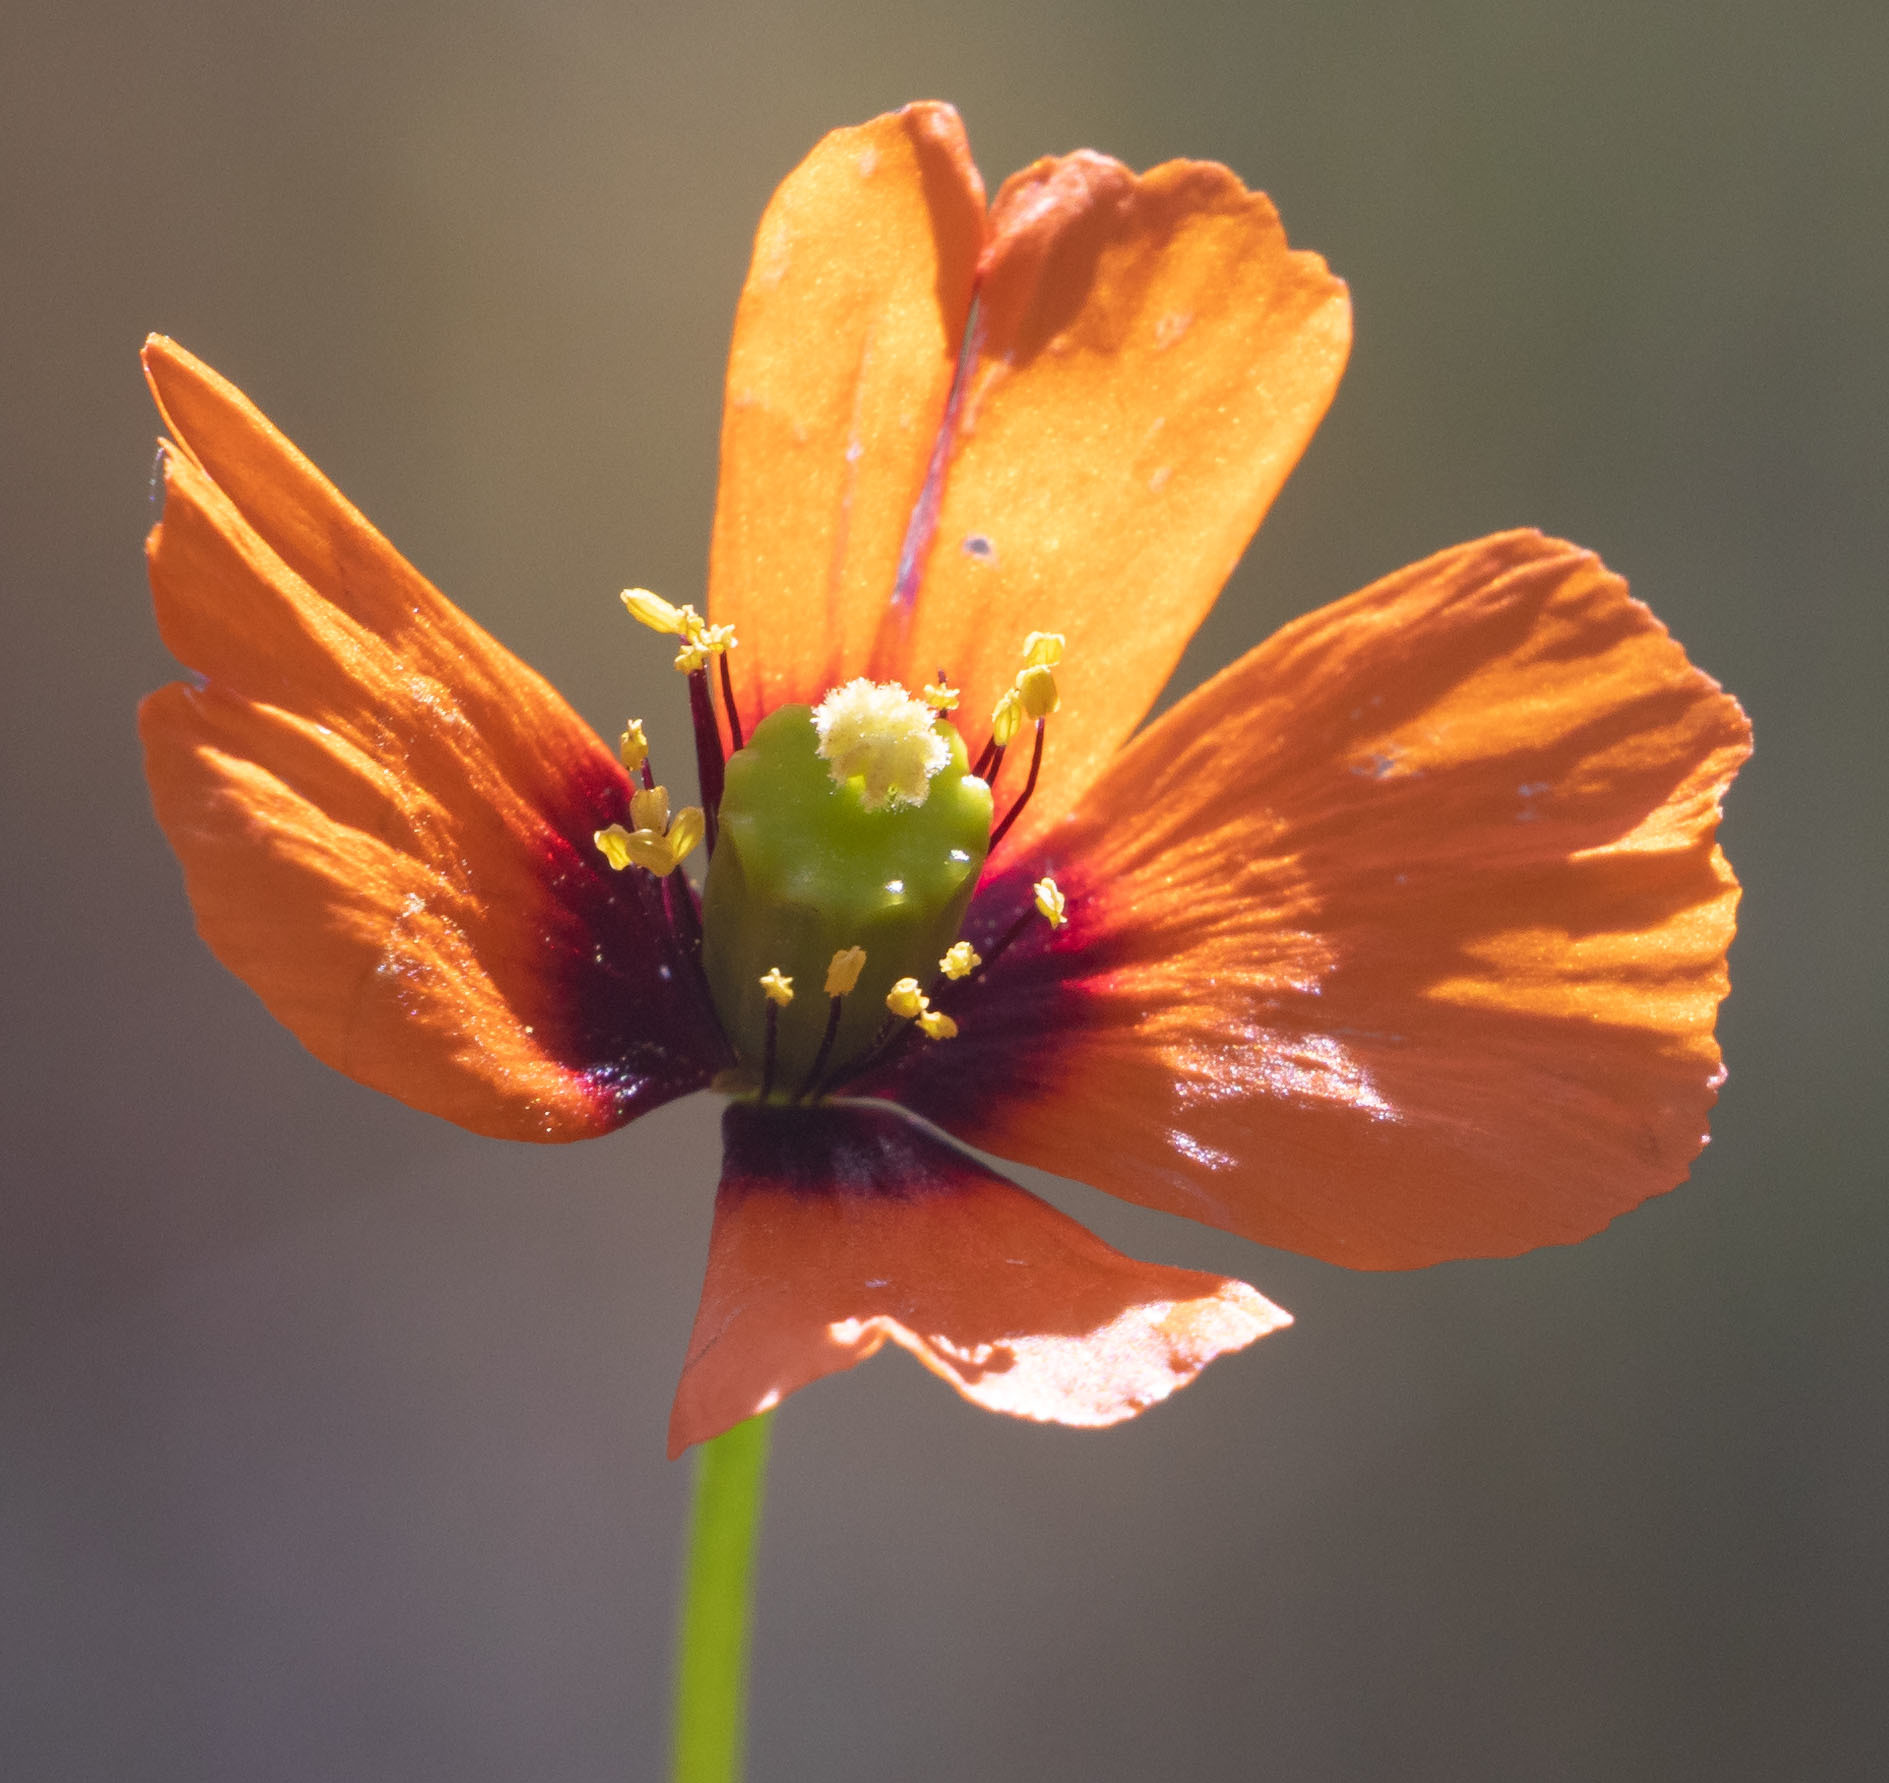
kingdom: Plantae
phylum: Tracheophyta
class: Magnoliopsida
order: Ranunculales
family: Papaveraceae
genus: Stylomecon
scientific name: Stylomecon heterophylla
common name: Flaming-poppy
